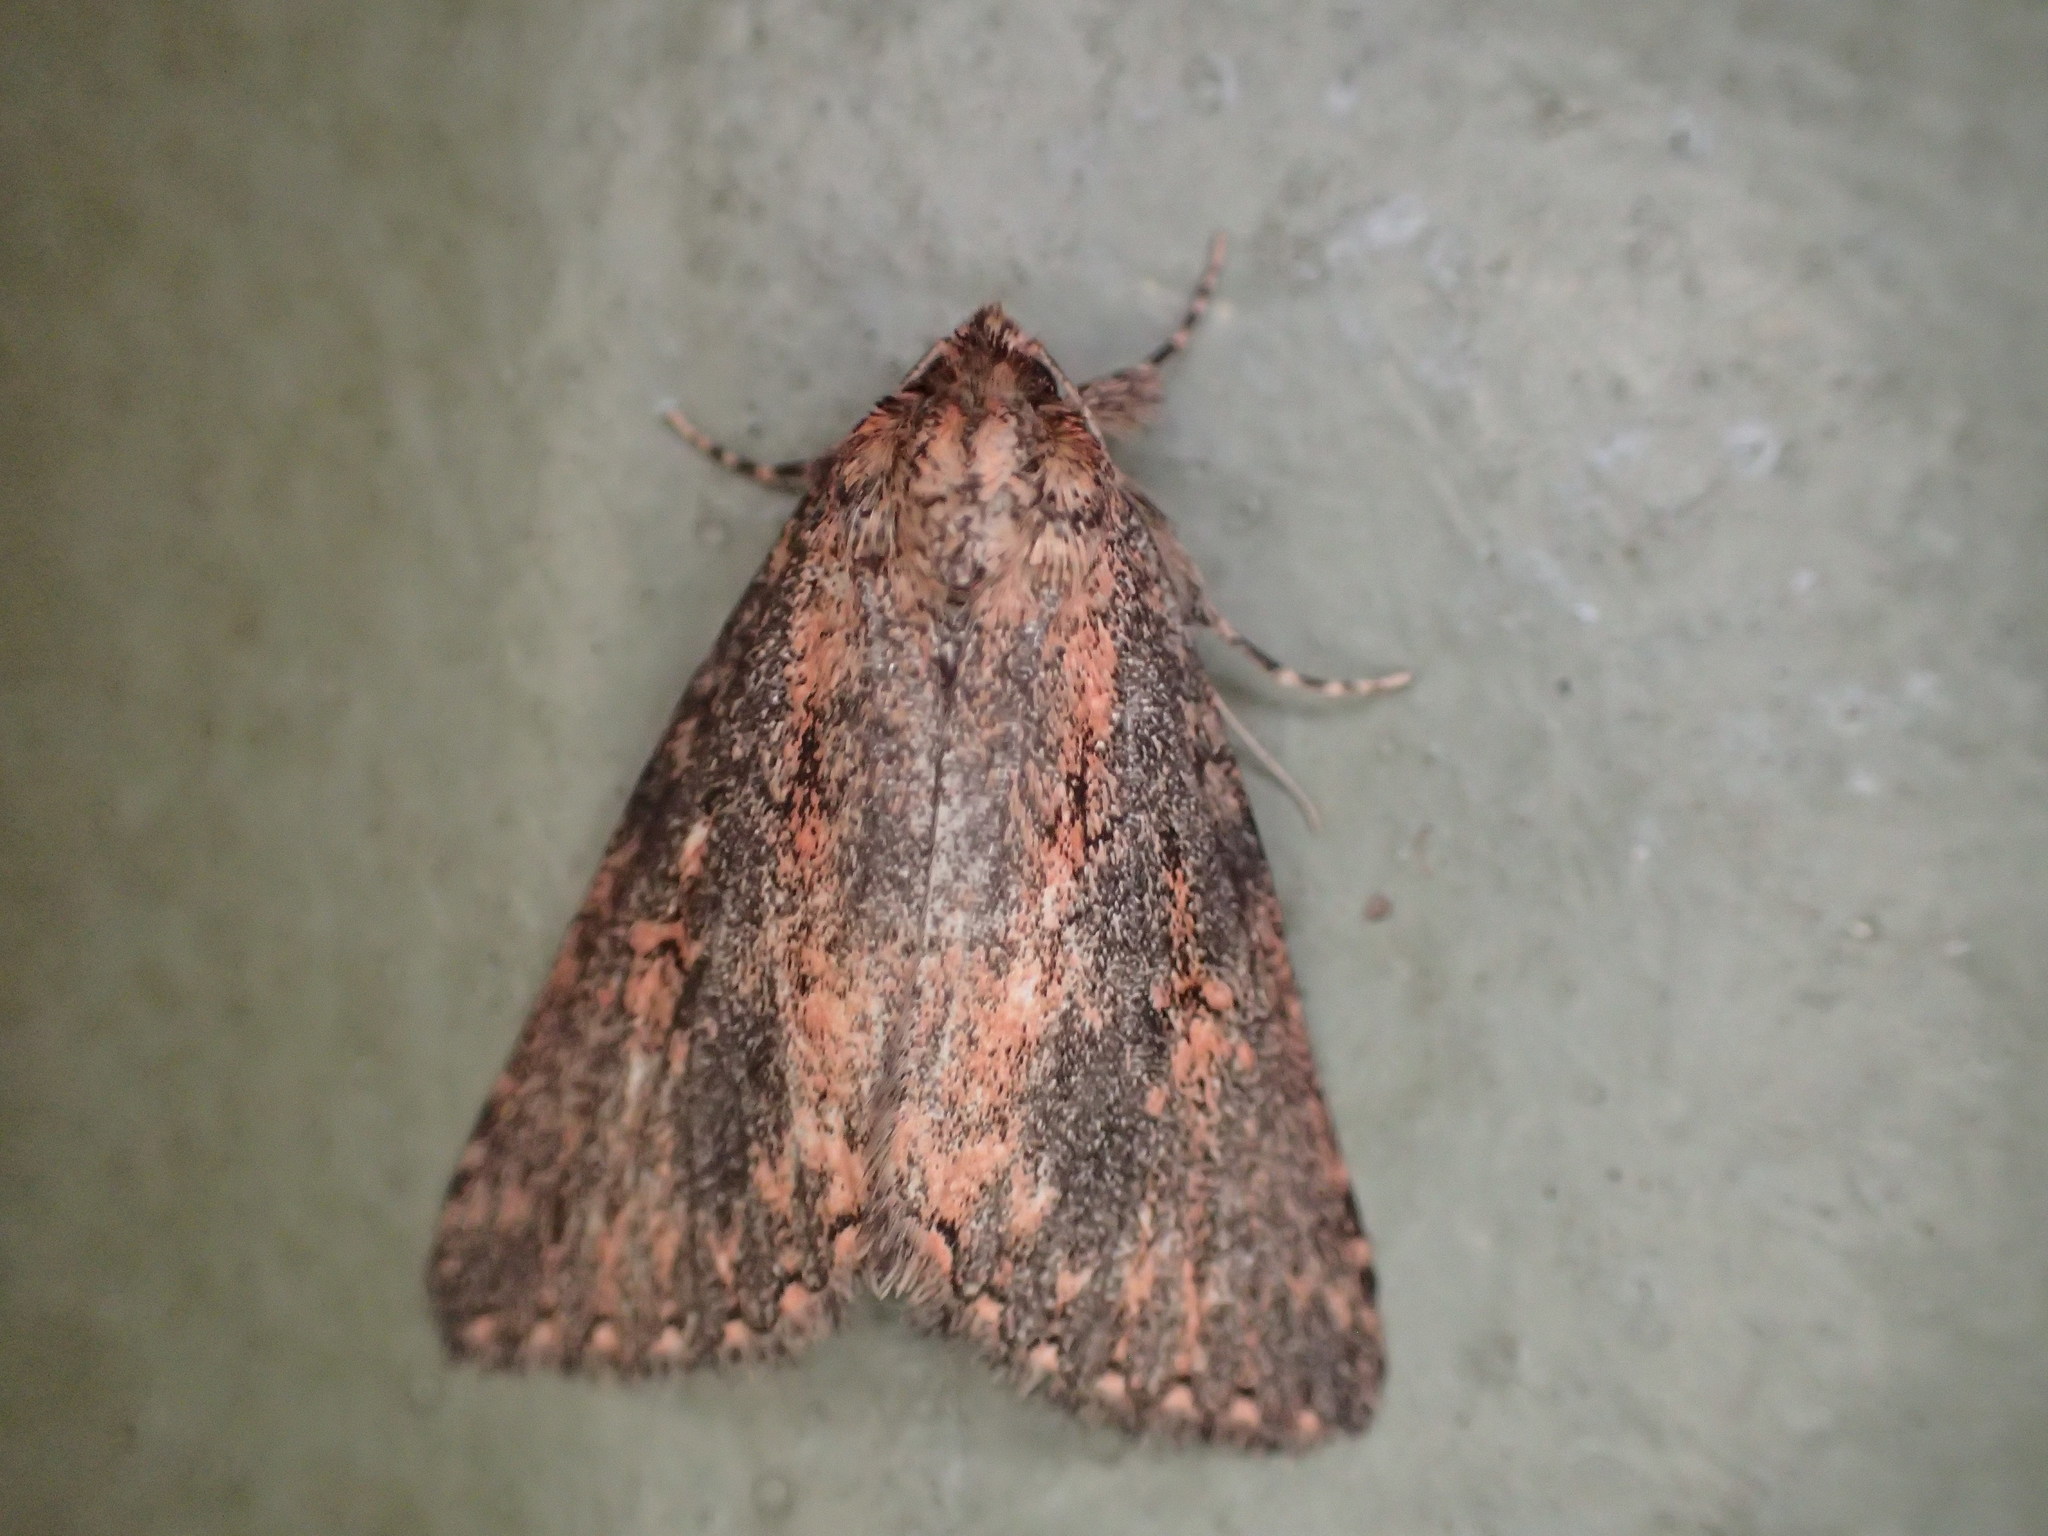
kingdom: Animalia
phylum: Arthropoda
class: Insecta
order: Lepidoptera
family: Noctuidae
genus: Thegalea
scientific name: Thegalea haemorrhanta
